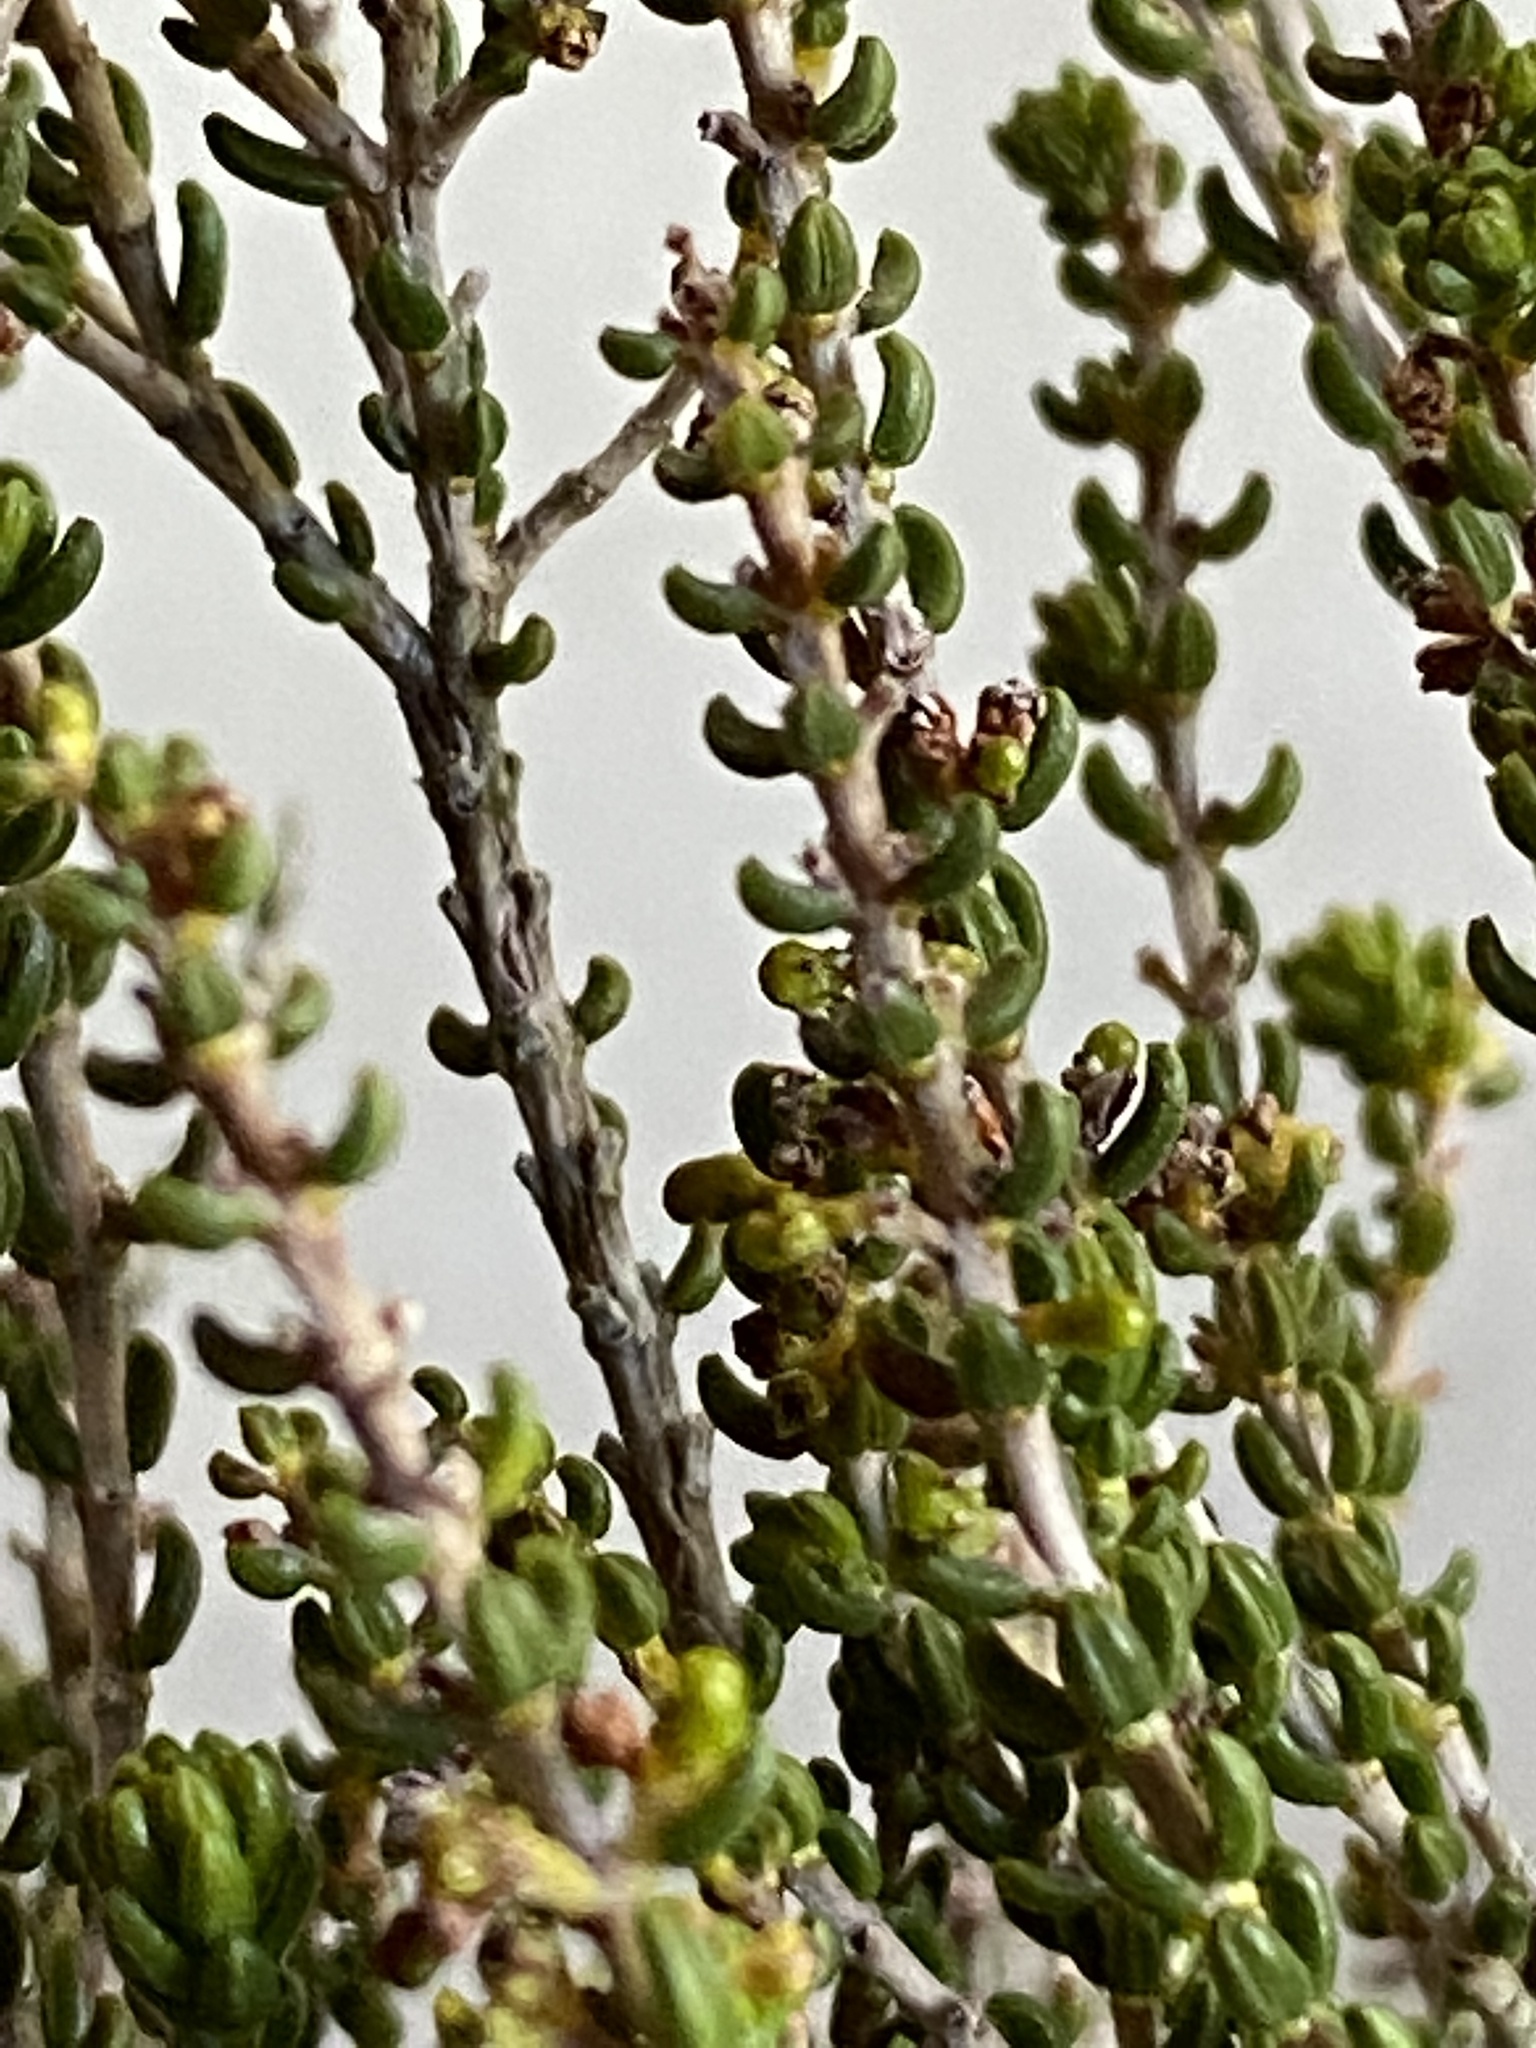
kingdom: Plantae
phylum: Tracheophyta
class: Magnoliopsida
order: Ericales
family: Ericaceae
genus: Erica
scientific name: Erica calcicola
